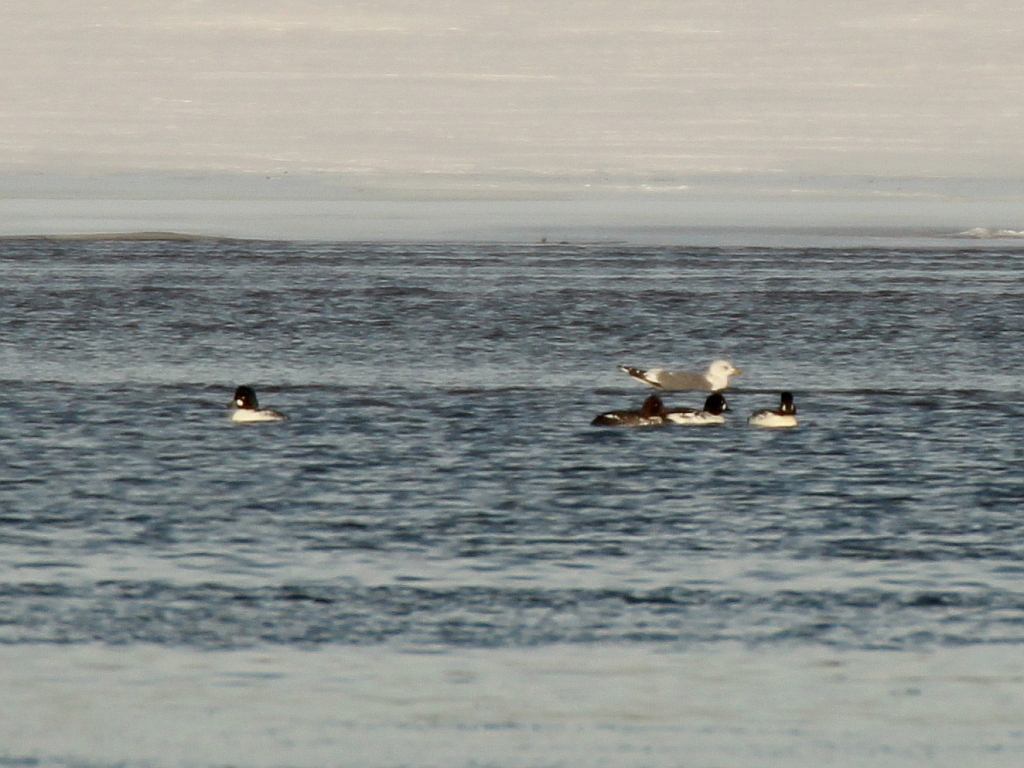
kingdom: Animalia
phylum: Chordata
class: Aves
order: Anseriformes
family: Anatidae
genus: Bucephala
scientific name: Bucephala clangula
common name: Common goldeneye
